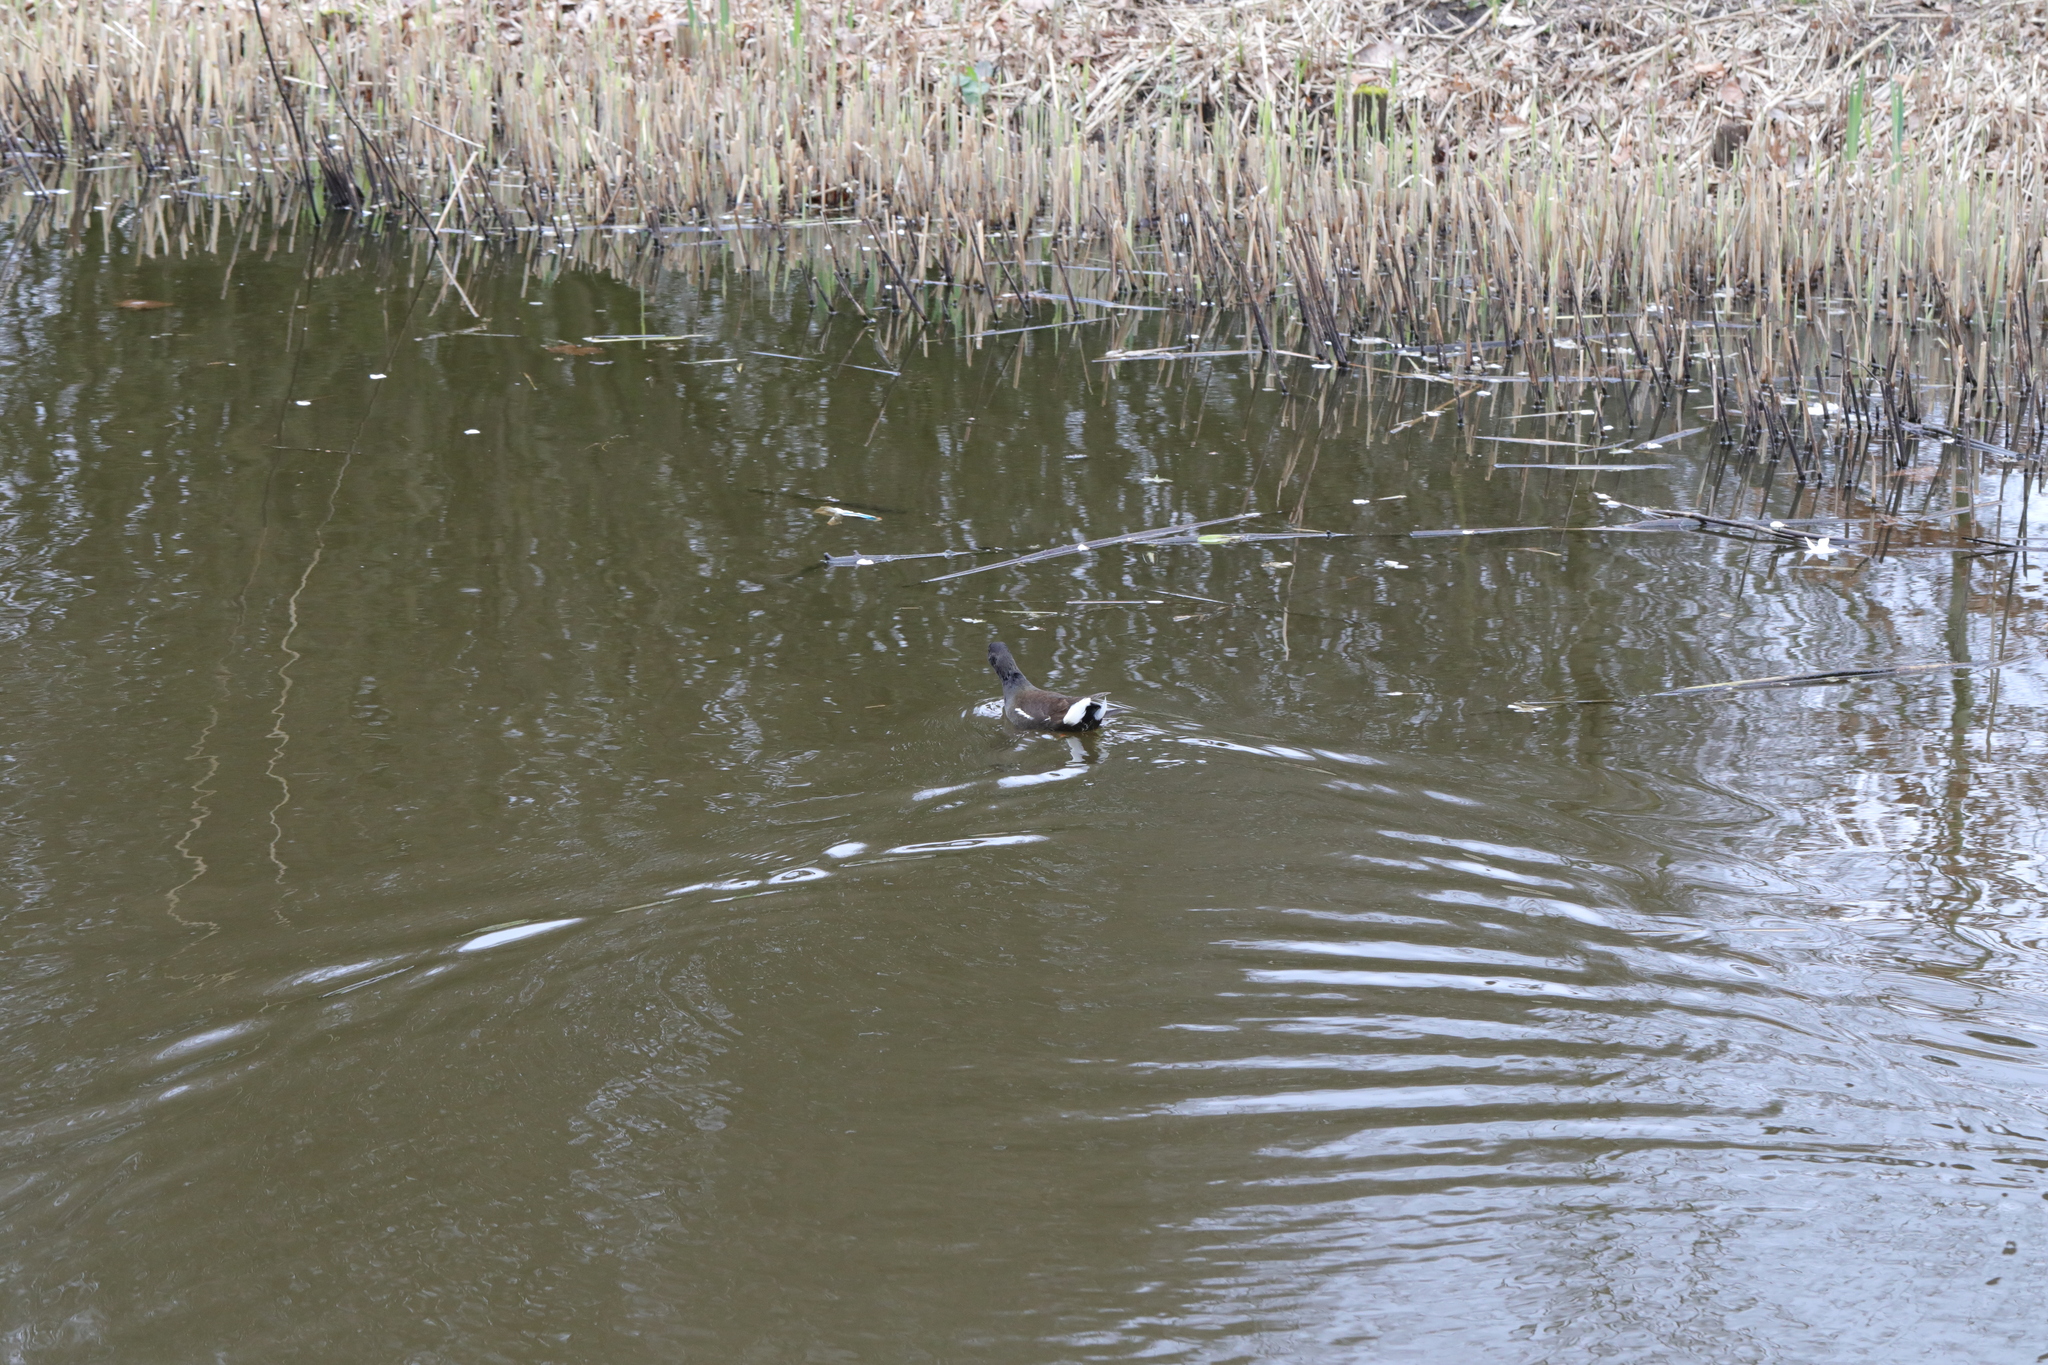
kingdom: Animalia
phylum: Chordata
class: Aves
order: Gruiformes
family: Rallidae
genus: Gallinula
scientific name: Gallinula chloropus
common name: Common moorhen
